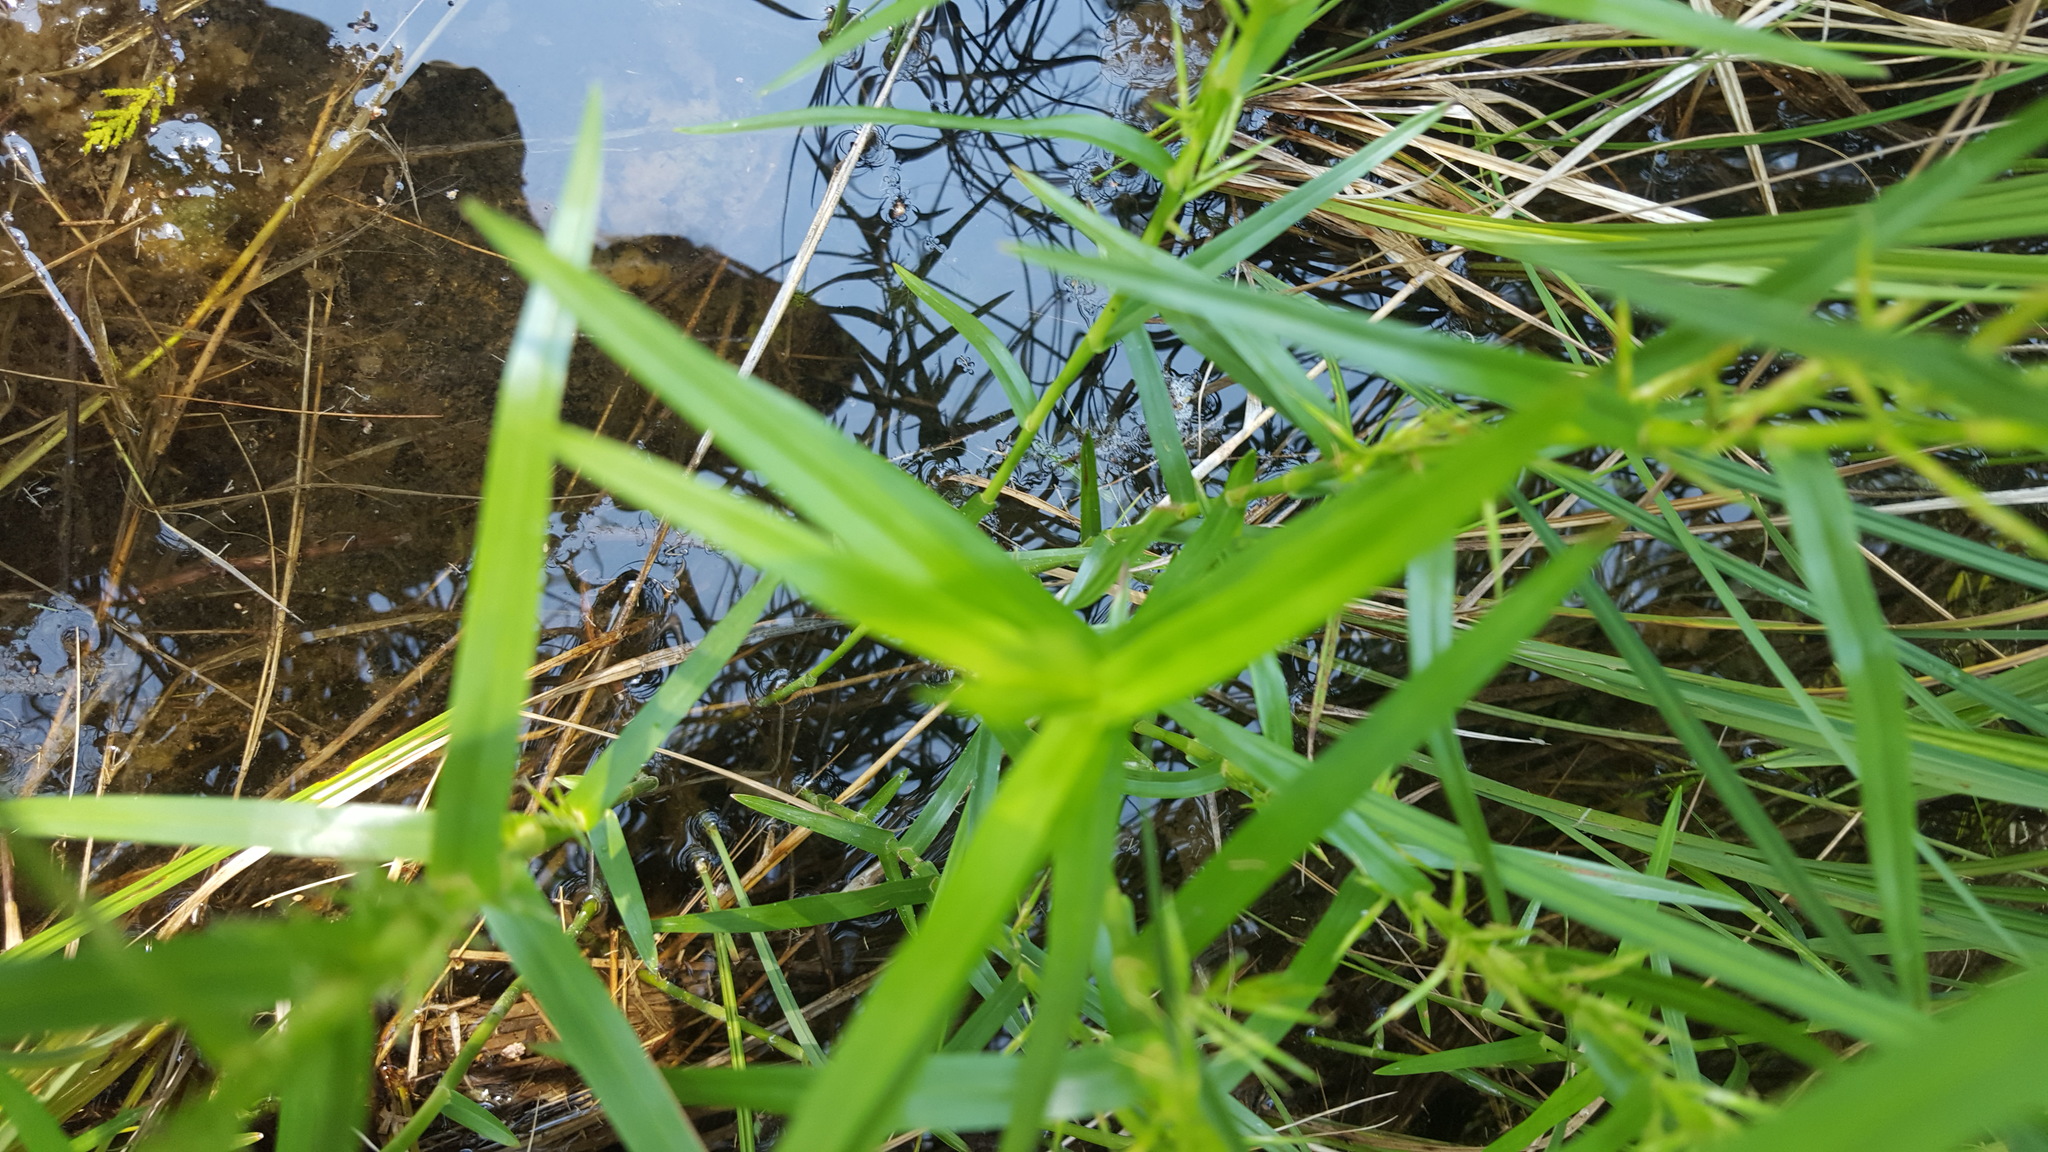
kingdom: Plantae
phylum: Tracheophyta
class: Liliopsida
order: Poales
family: Cyperaceae
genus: Dulichium
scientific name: Dulichium arundinaceum
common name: Three-way sedge
